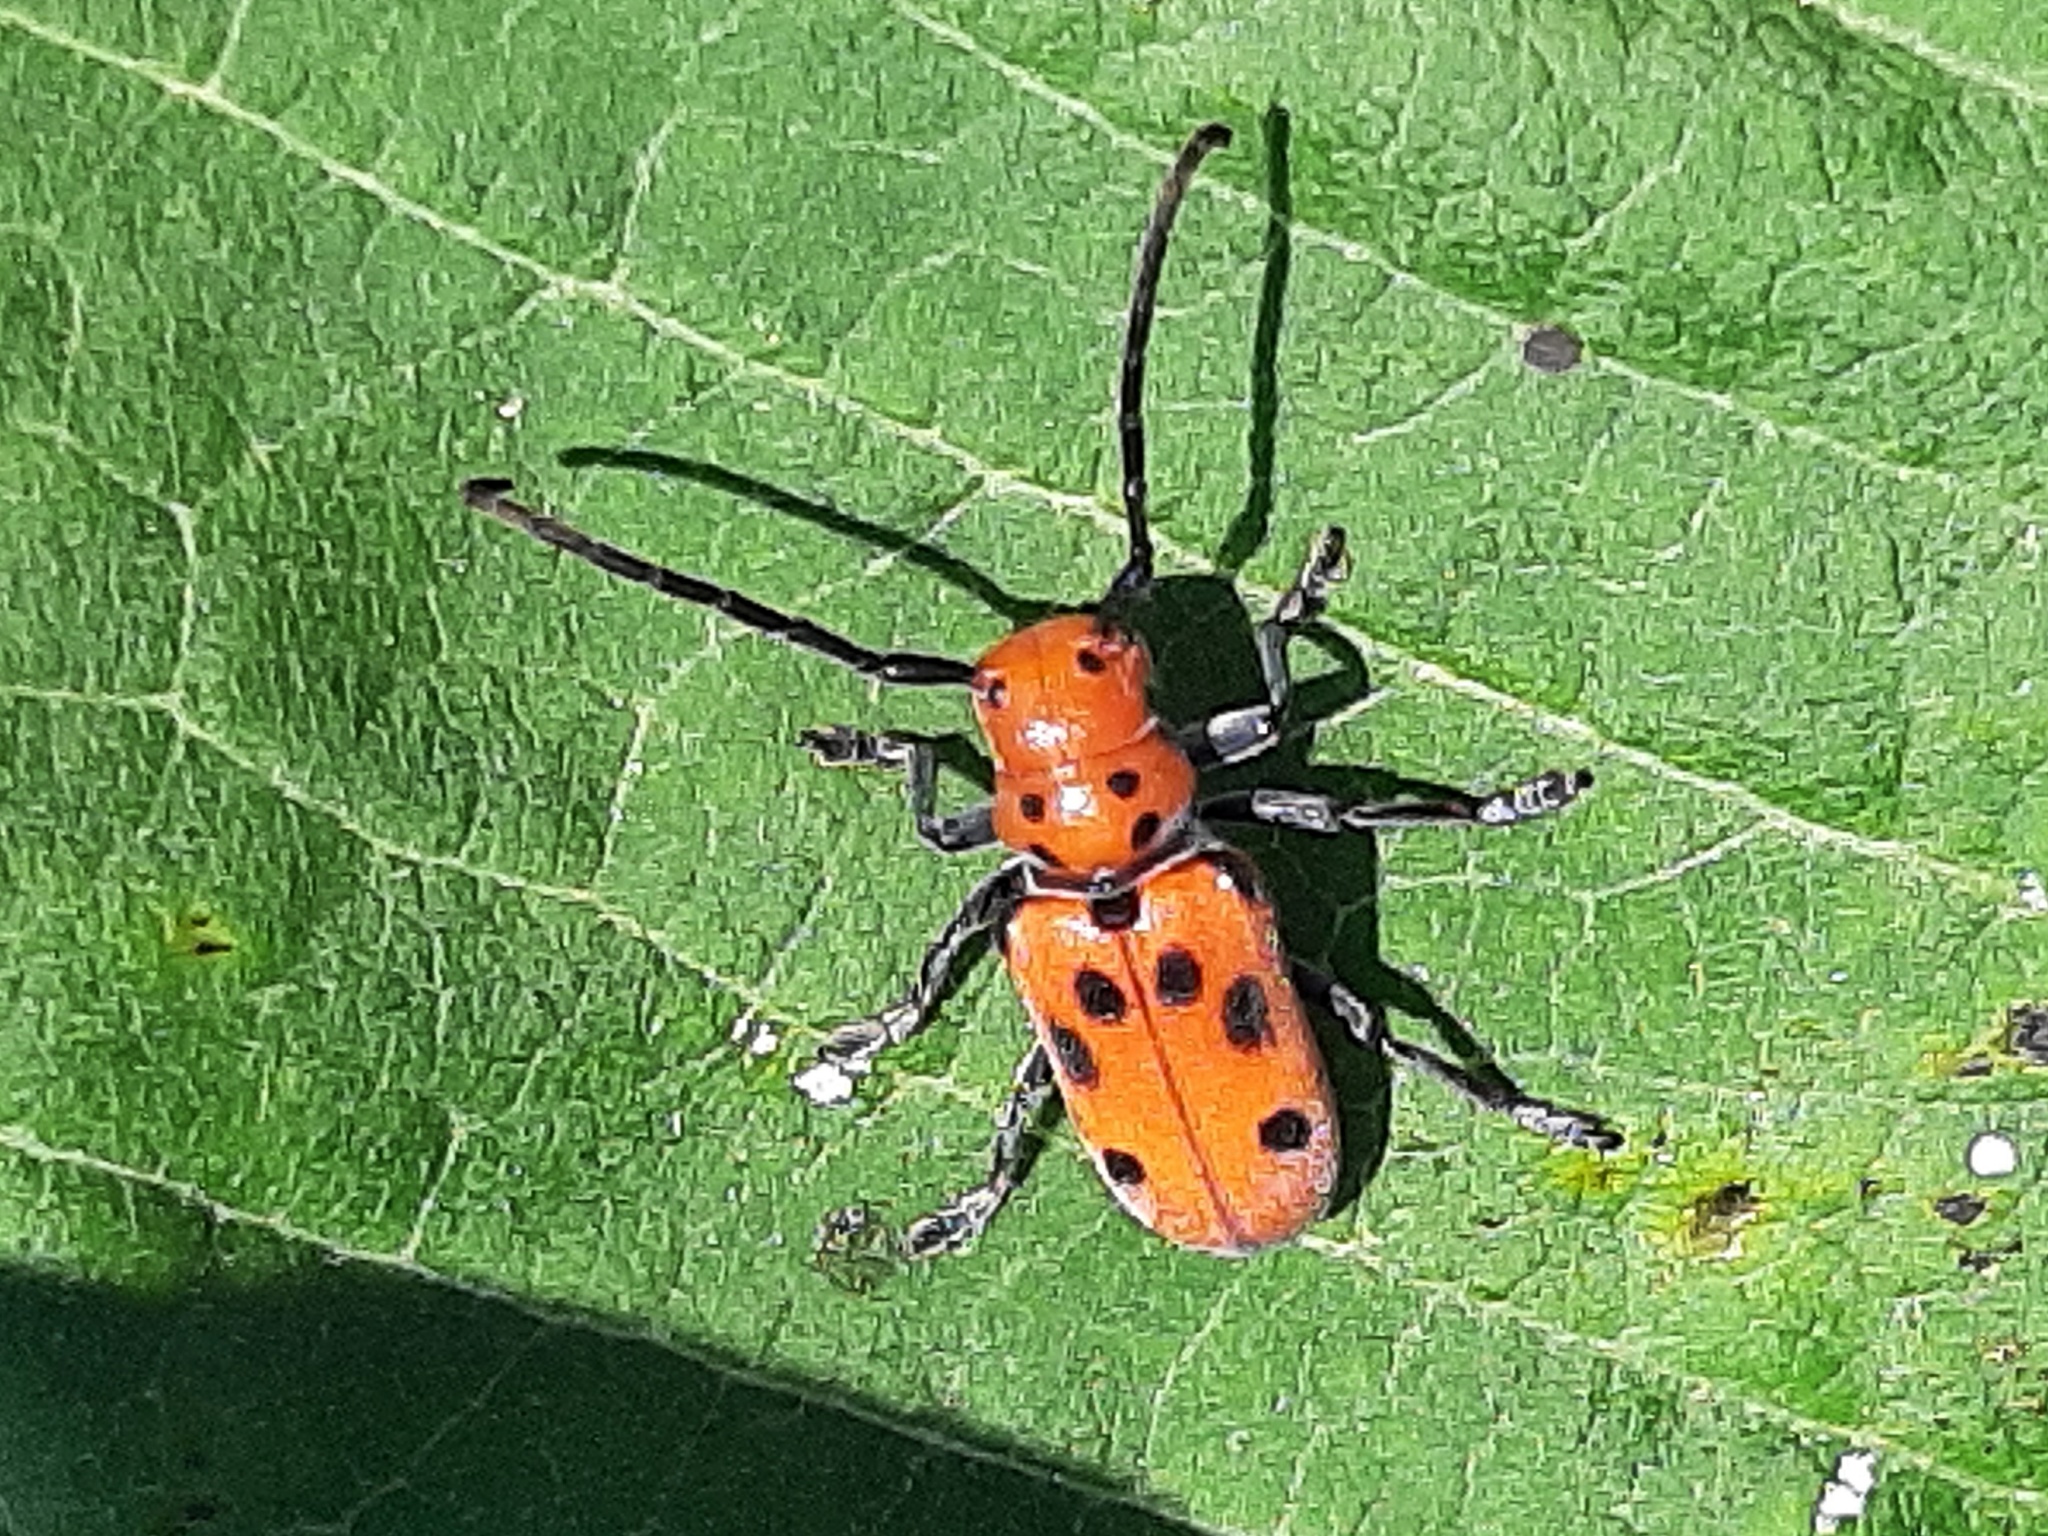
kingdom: Animalia
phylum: Arthropoda
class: Insecta
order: Coleoptera
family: Cerambycidae
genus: Tetraopes
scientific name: Tetraopes tetrophthalmus
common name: Red milkweed beetle
